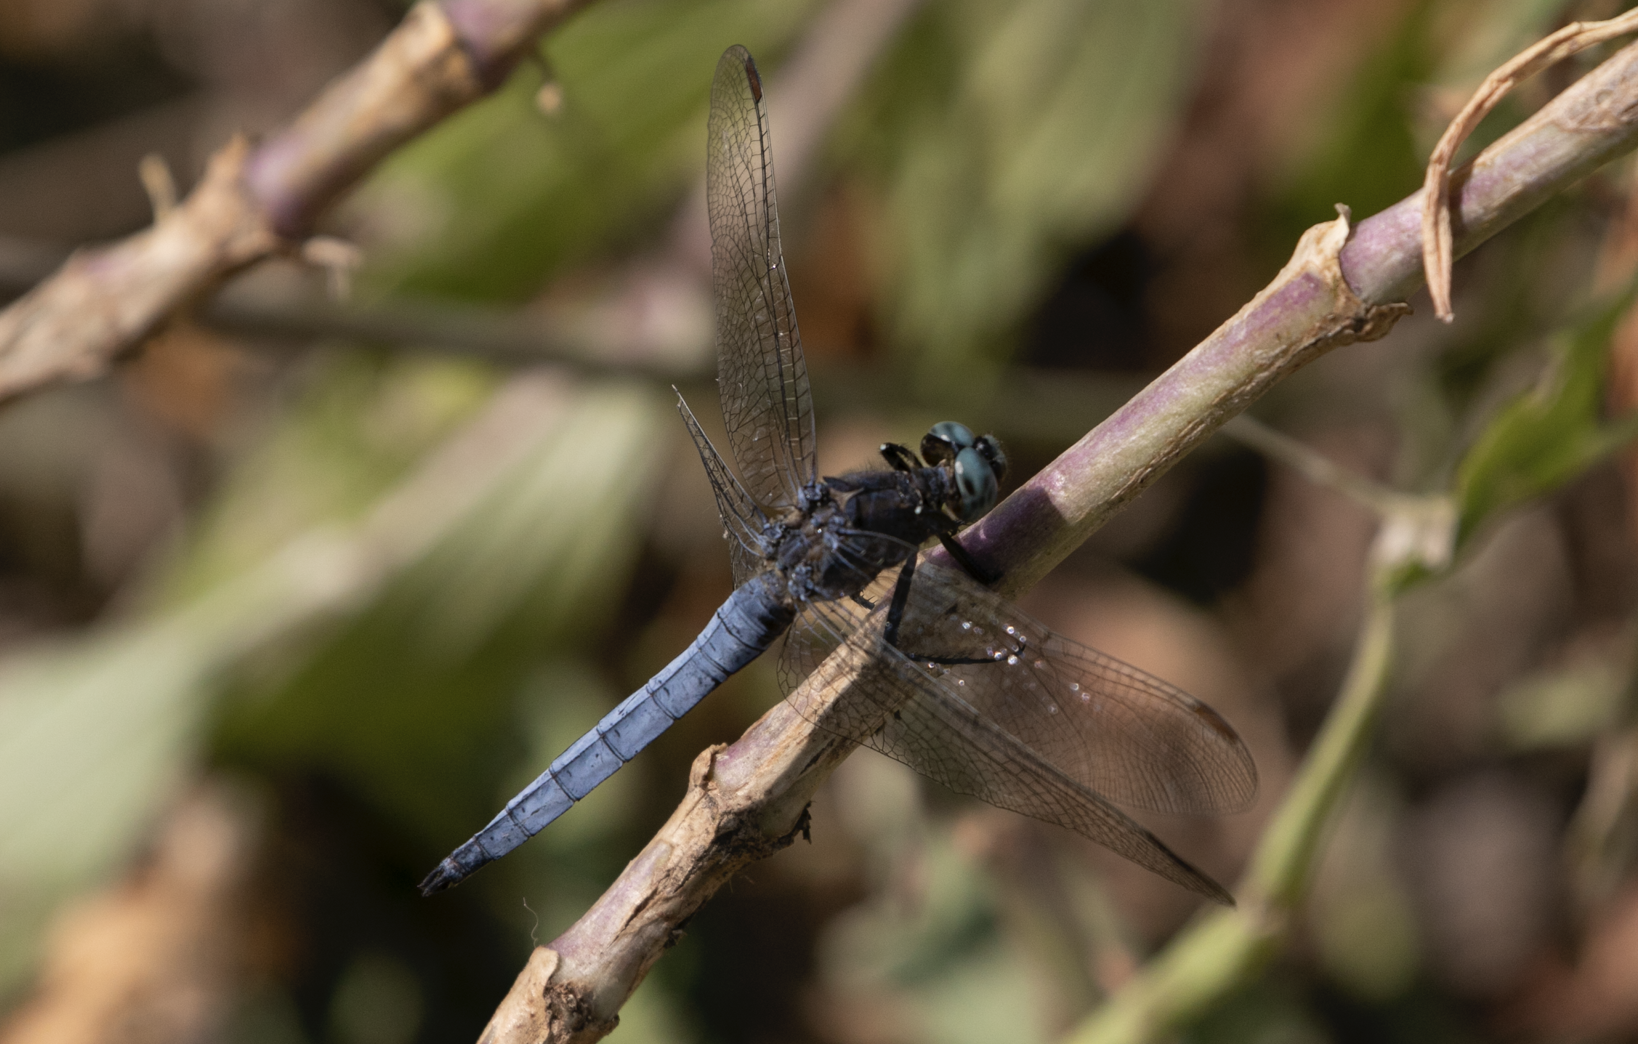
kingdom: Animalia
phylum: Arthropoda
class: Insecta
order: Odonata
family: Libellulidae
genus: Orthetrum
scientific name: Orthetrum coerulescens
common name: Keeled skimmer
